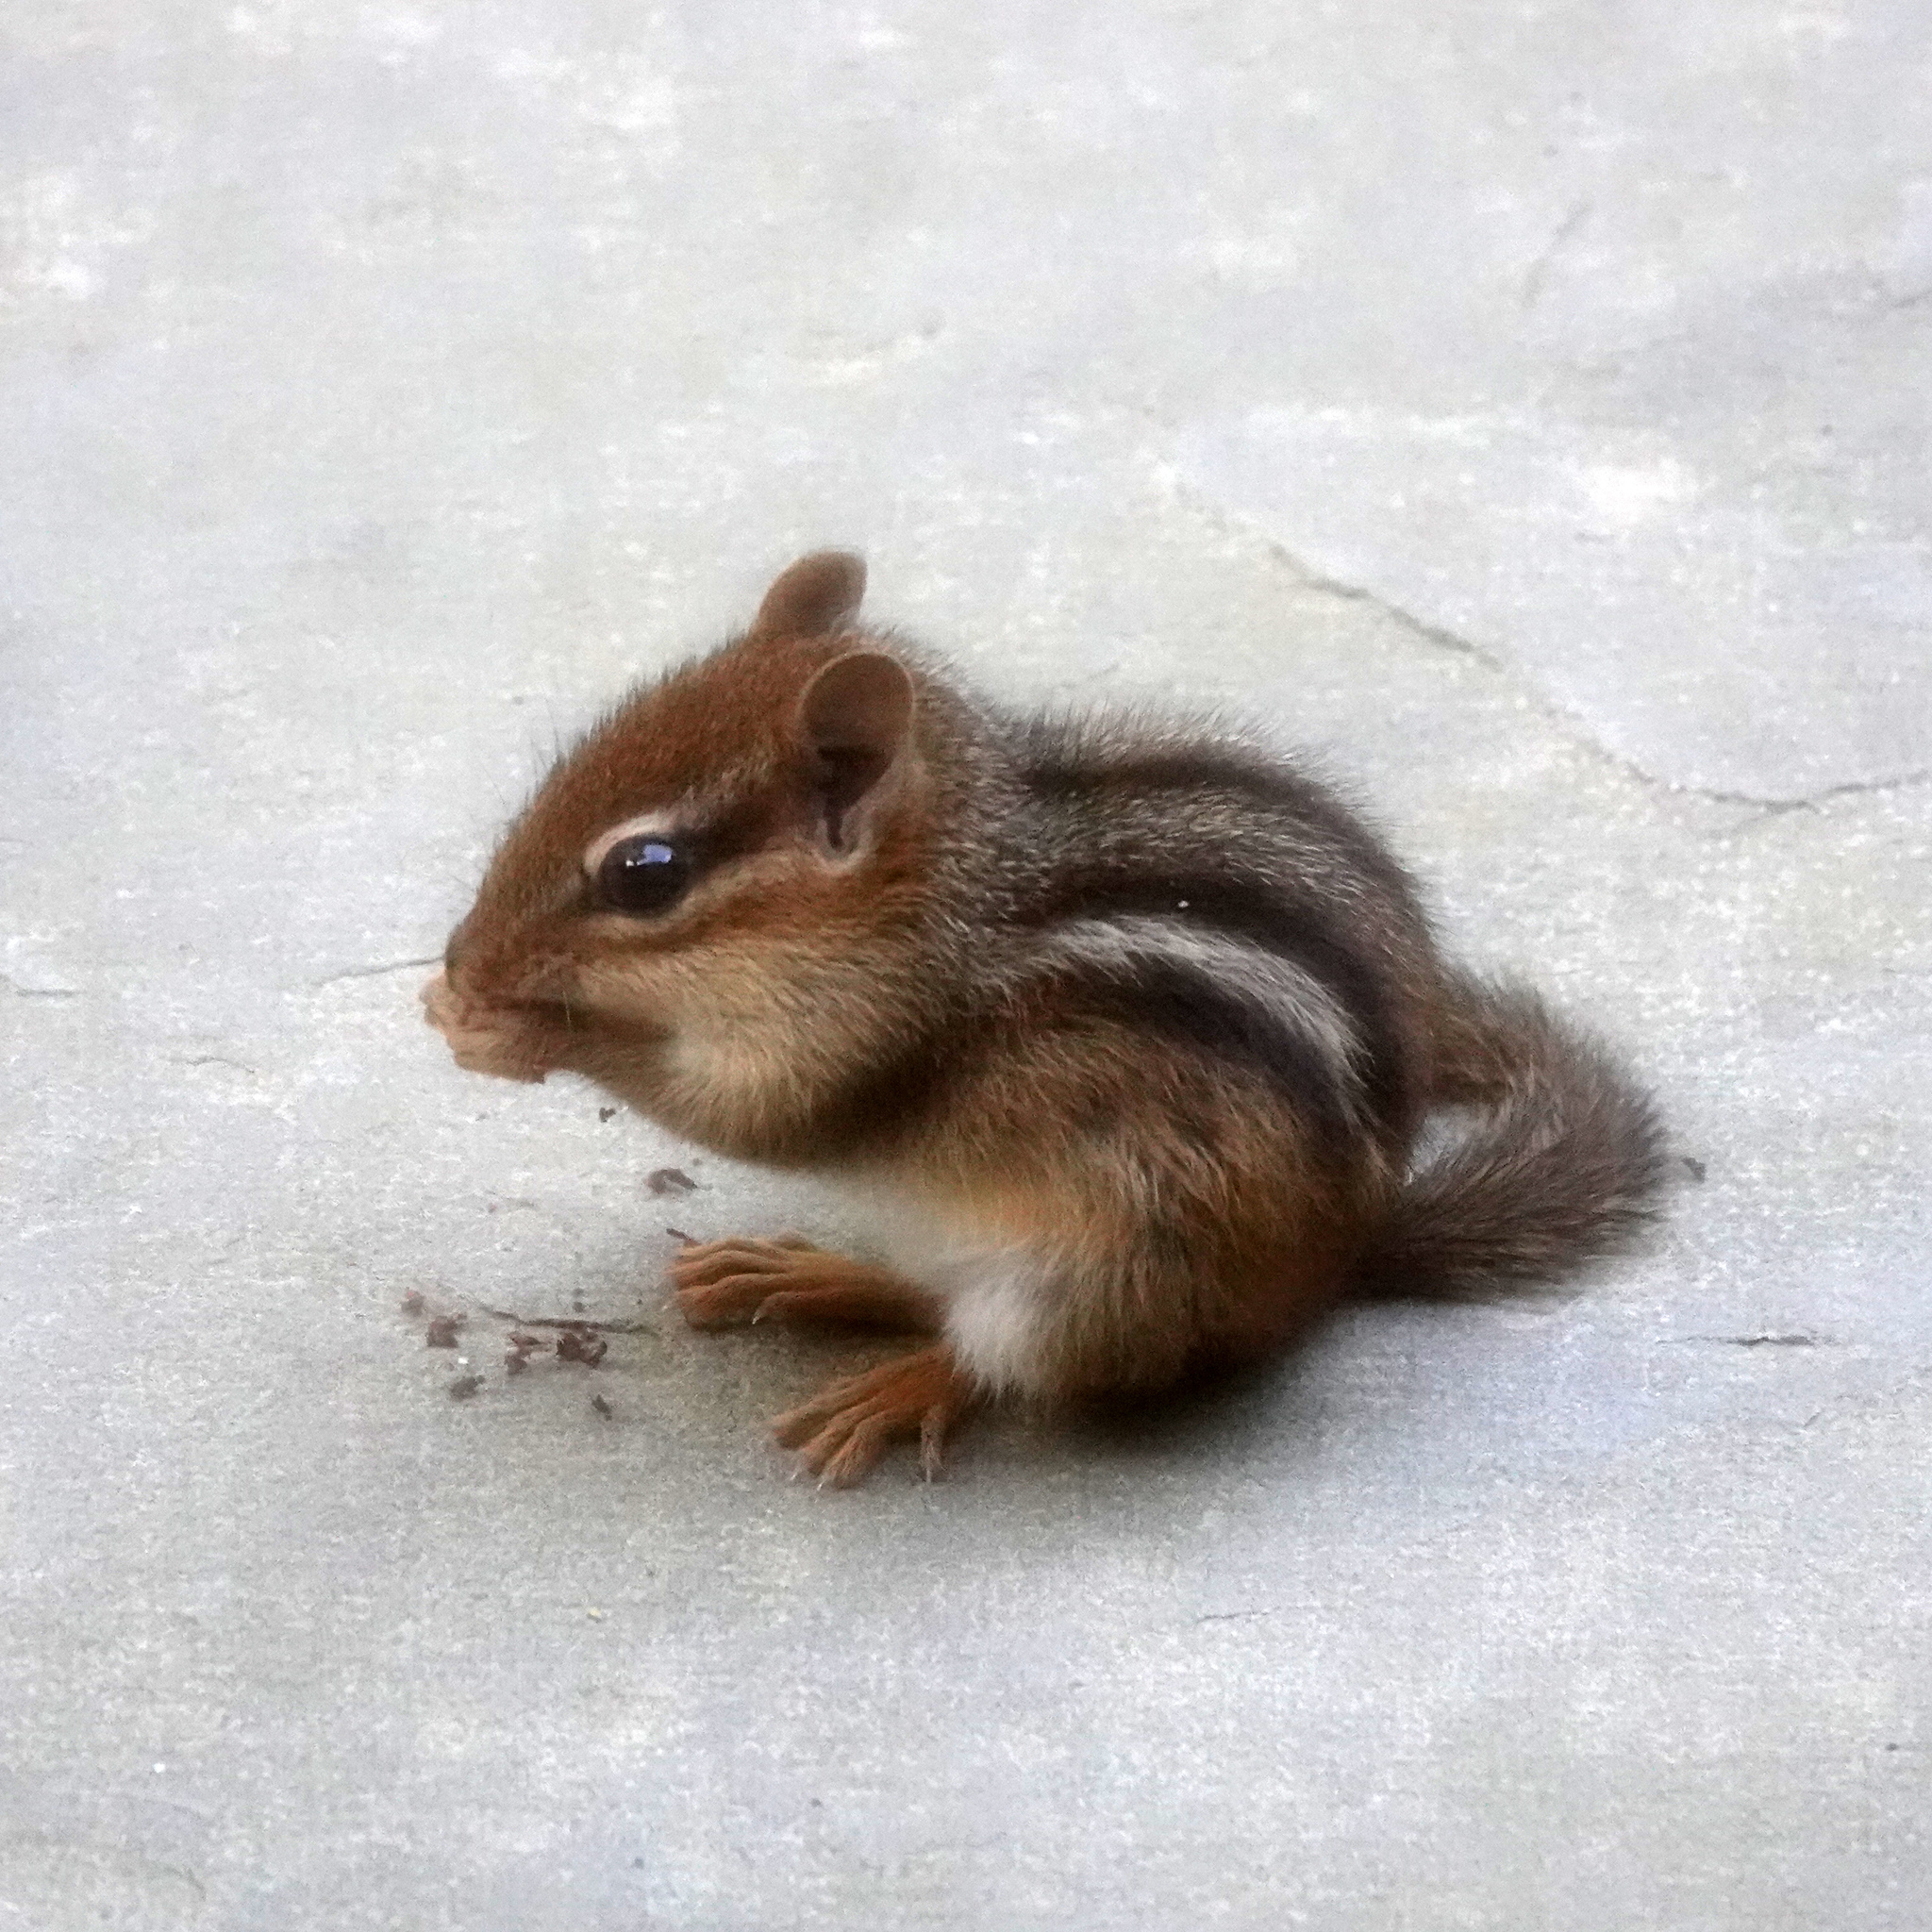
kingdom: Animalia
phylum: Chordata
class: Mammalia
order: Rodentia
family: Sciuridae
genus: Tamias
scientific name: Tamias striatus
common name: Eastern chipmunk
